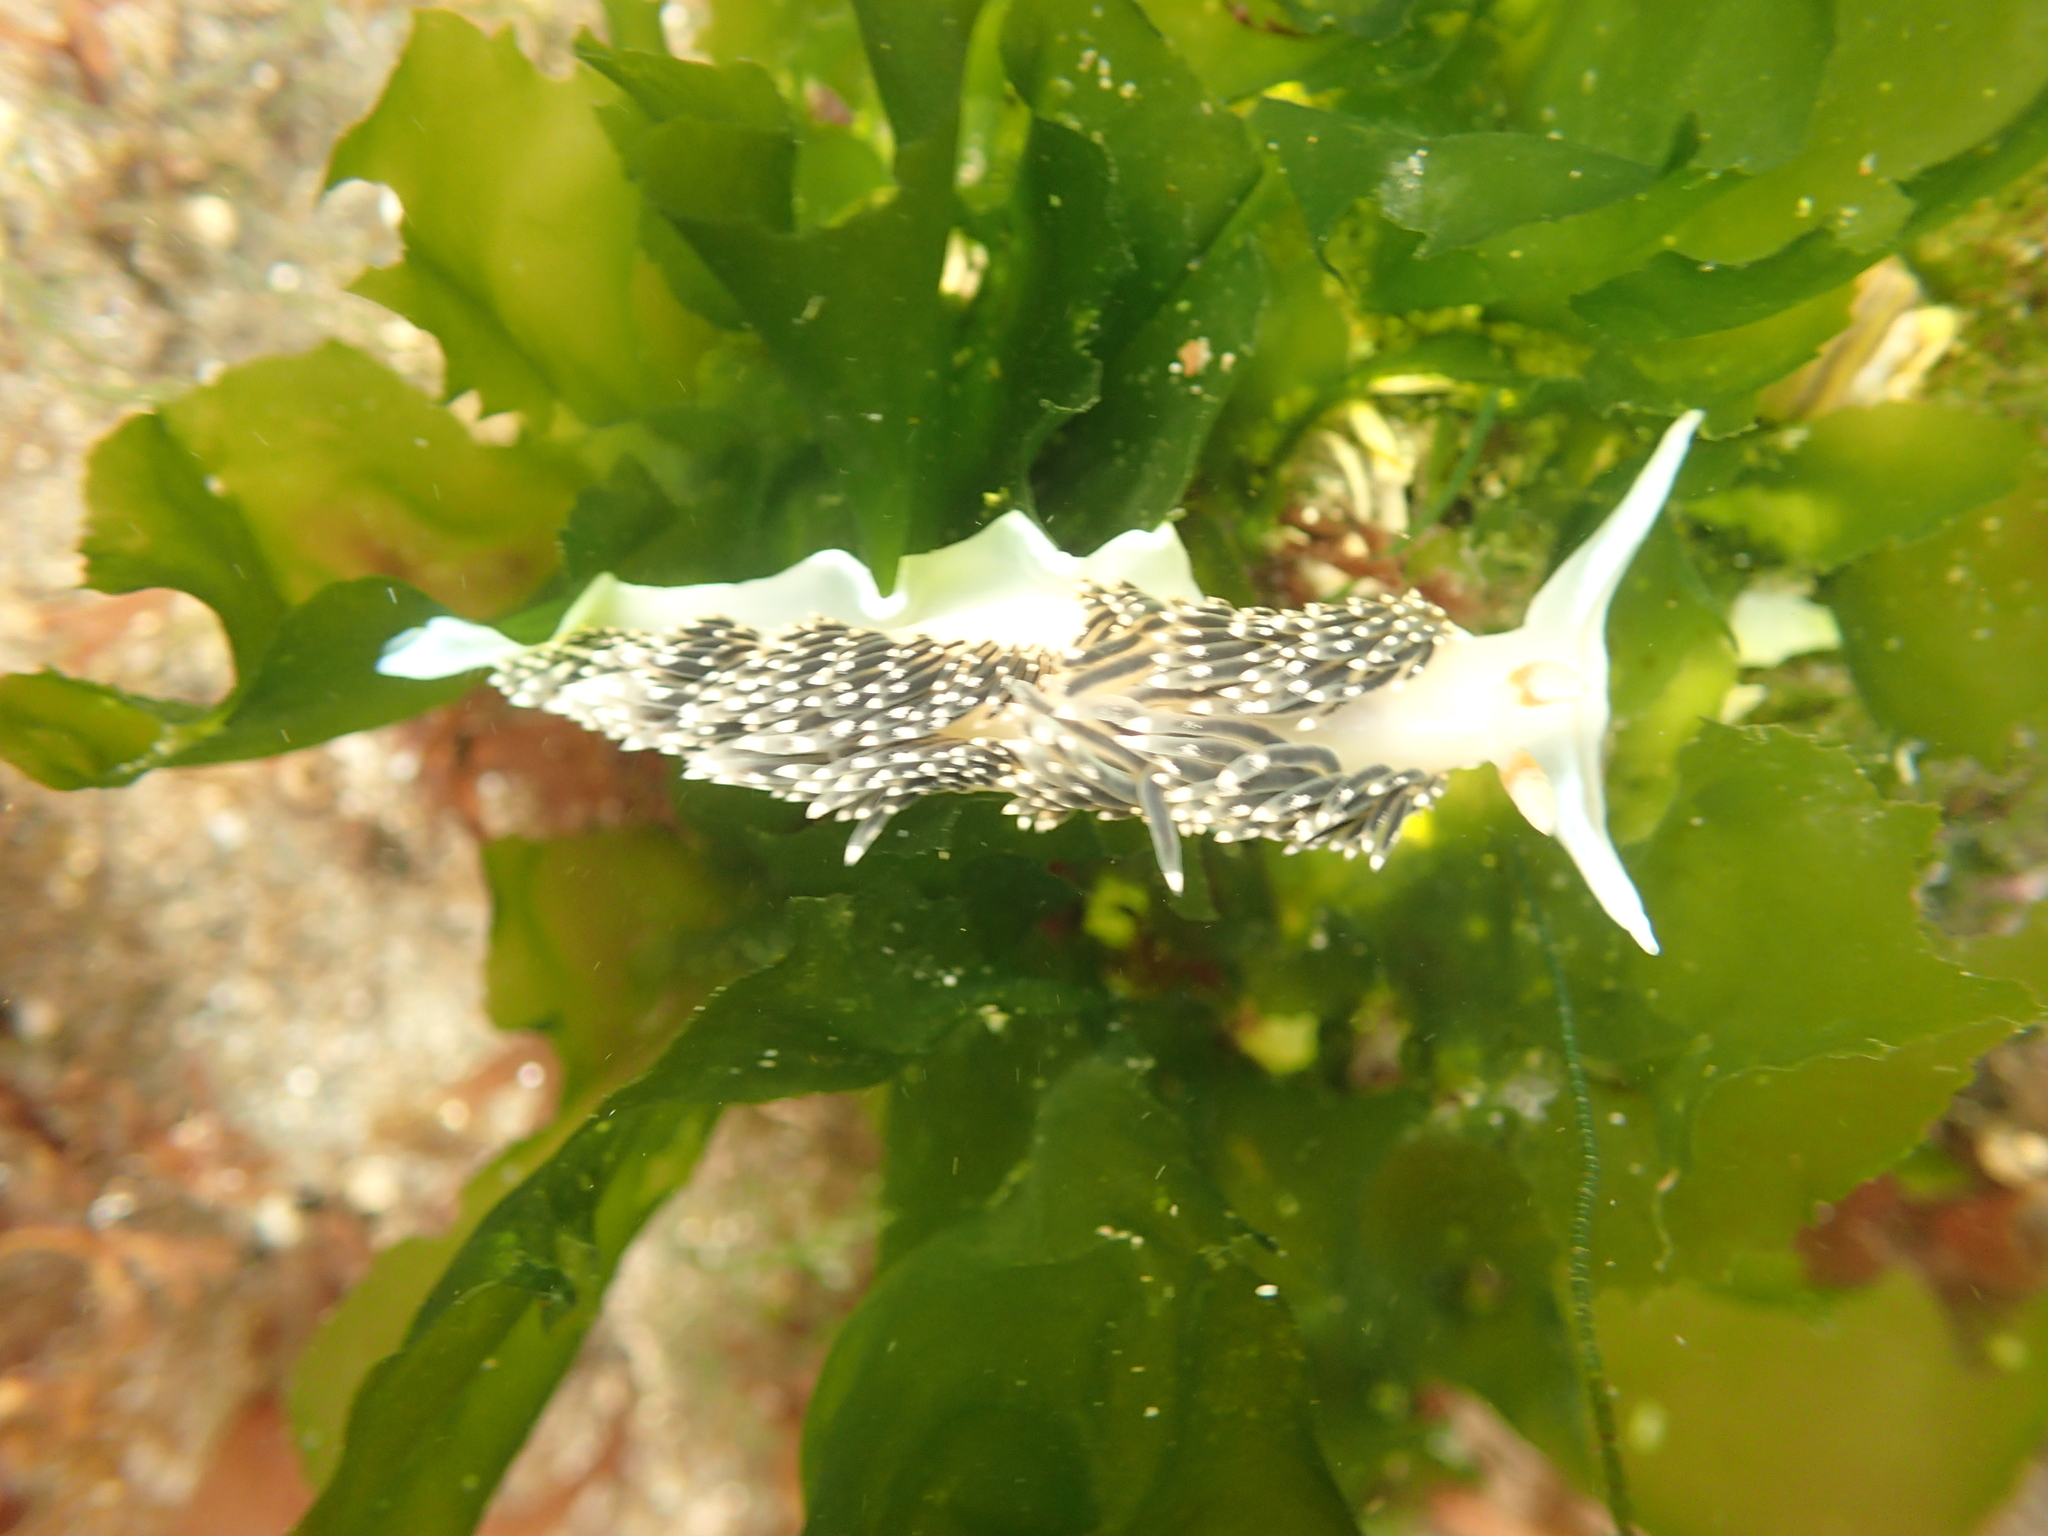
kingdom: Animalia
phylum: Mollusca
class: Gastropoda
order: Nudibranchia
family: Facelinidae
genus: Phidiana
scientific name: Phidiana hiltoni
